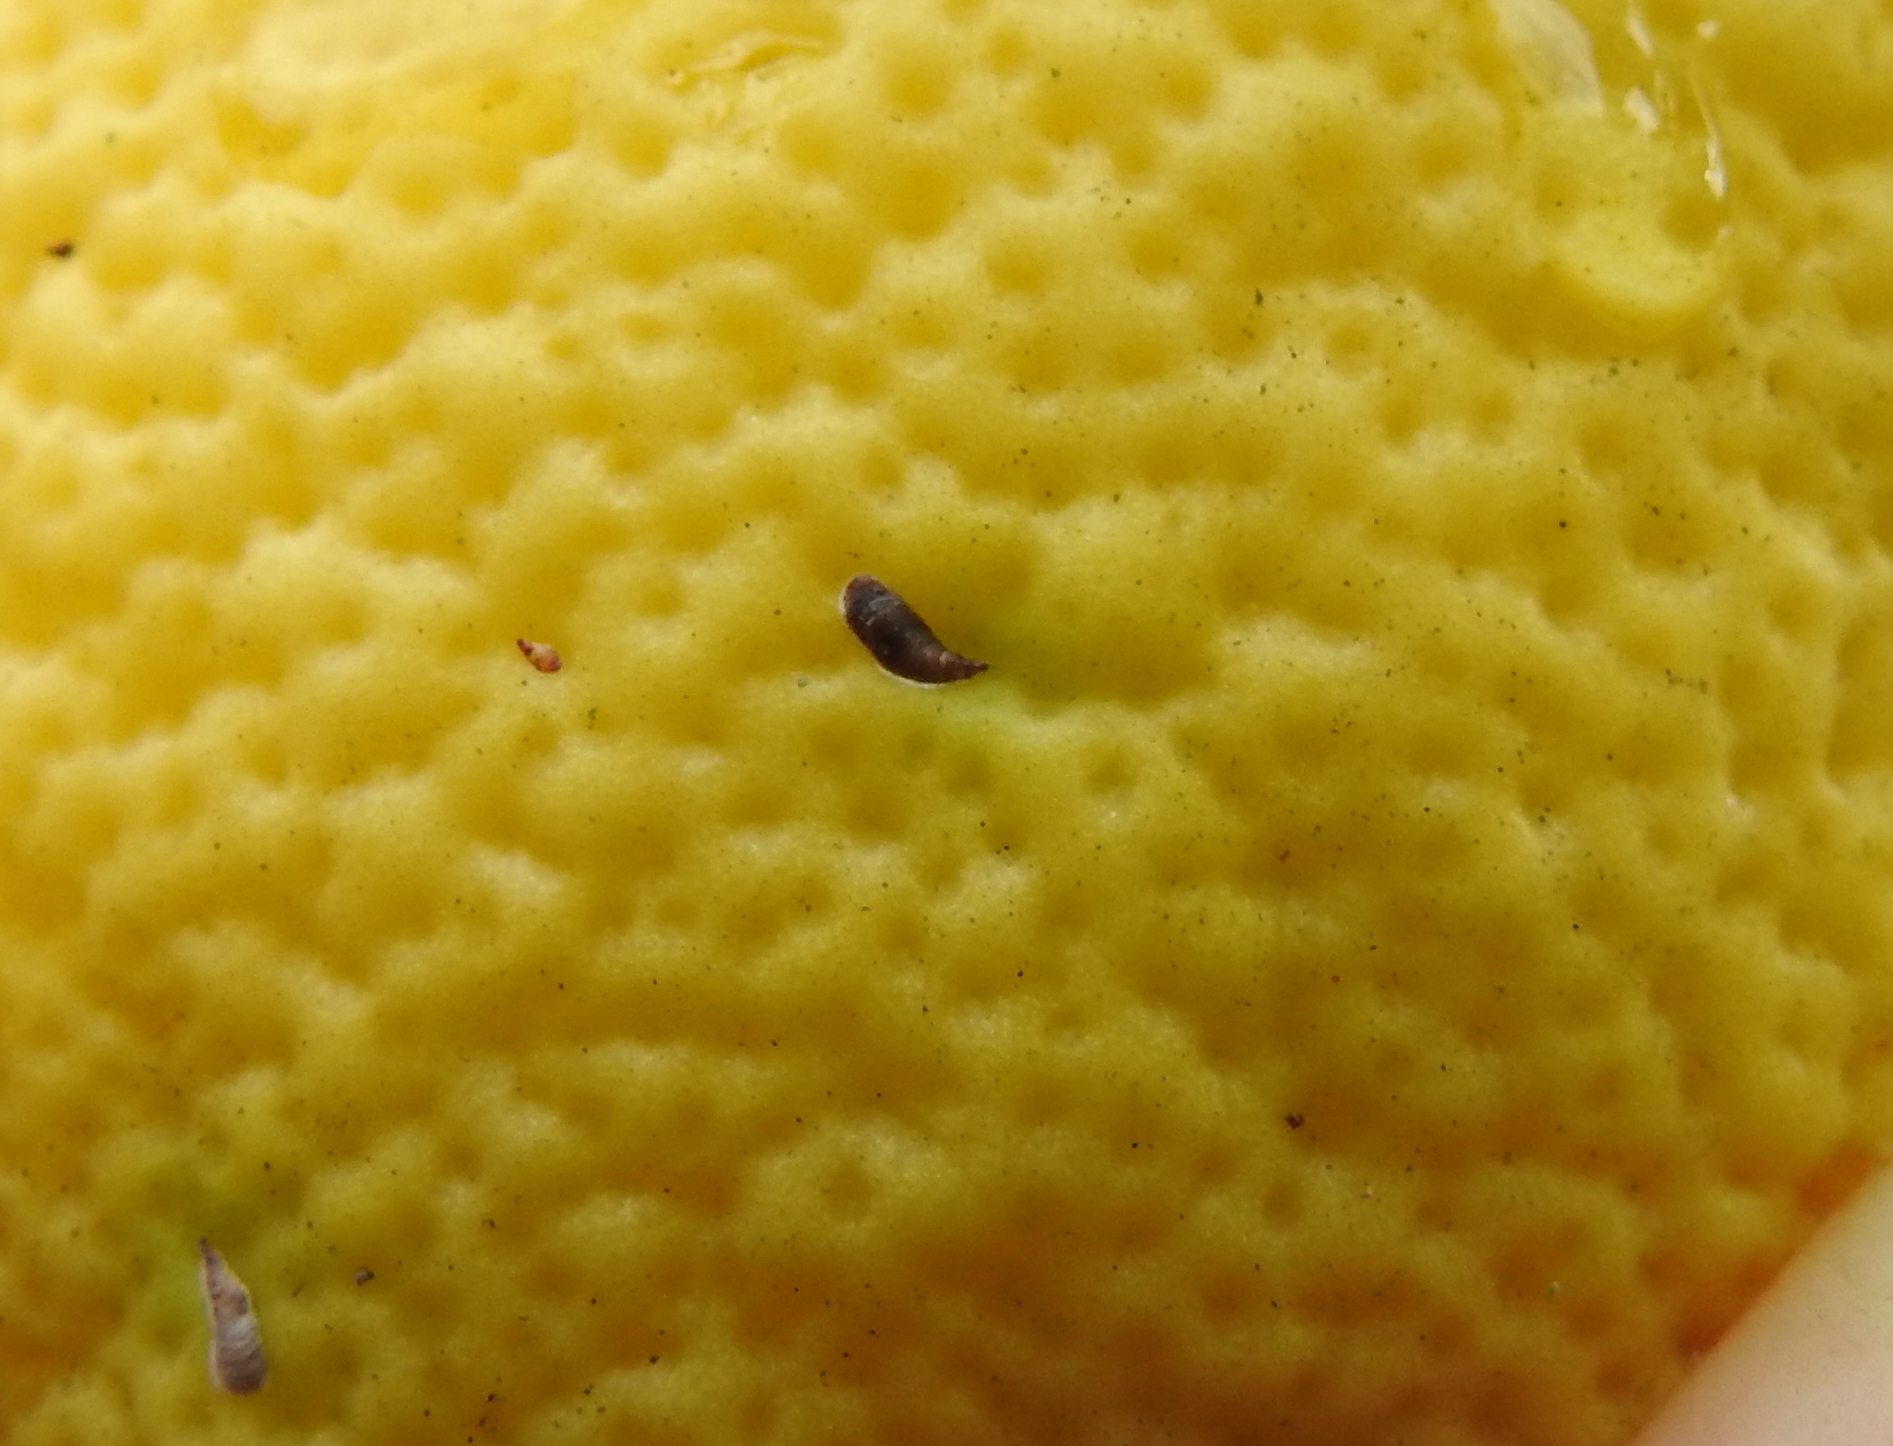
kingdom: Animalia
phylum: Arthropoda
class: Insecta
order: Hemiptera
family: Diaspididae
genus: Lepidosaphes
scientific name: Lepidosaphes beckii
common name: Purple scale
